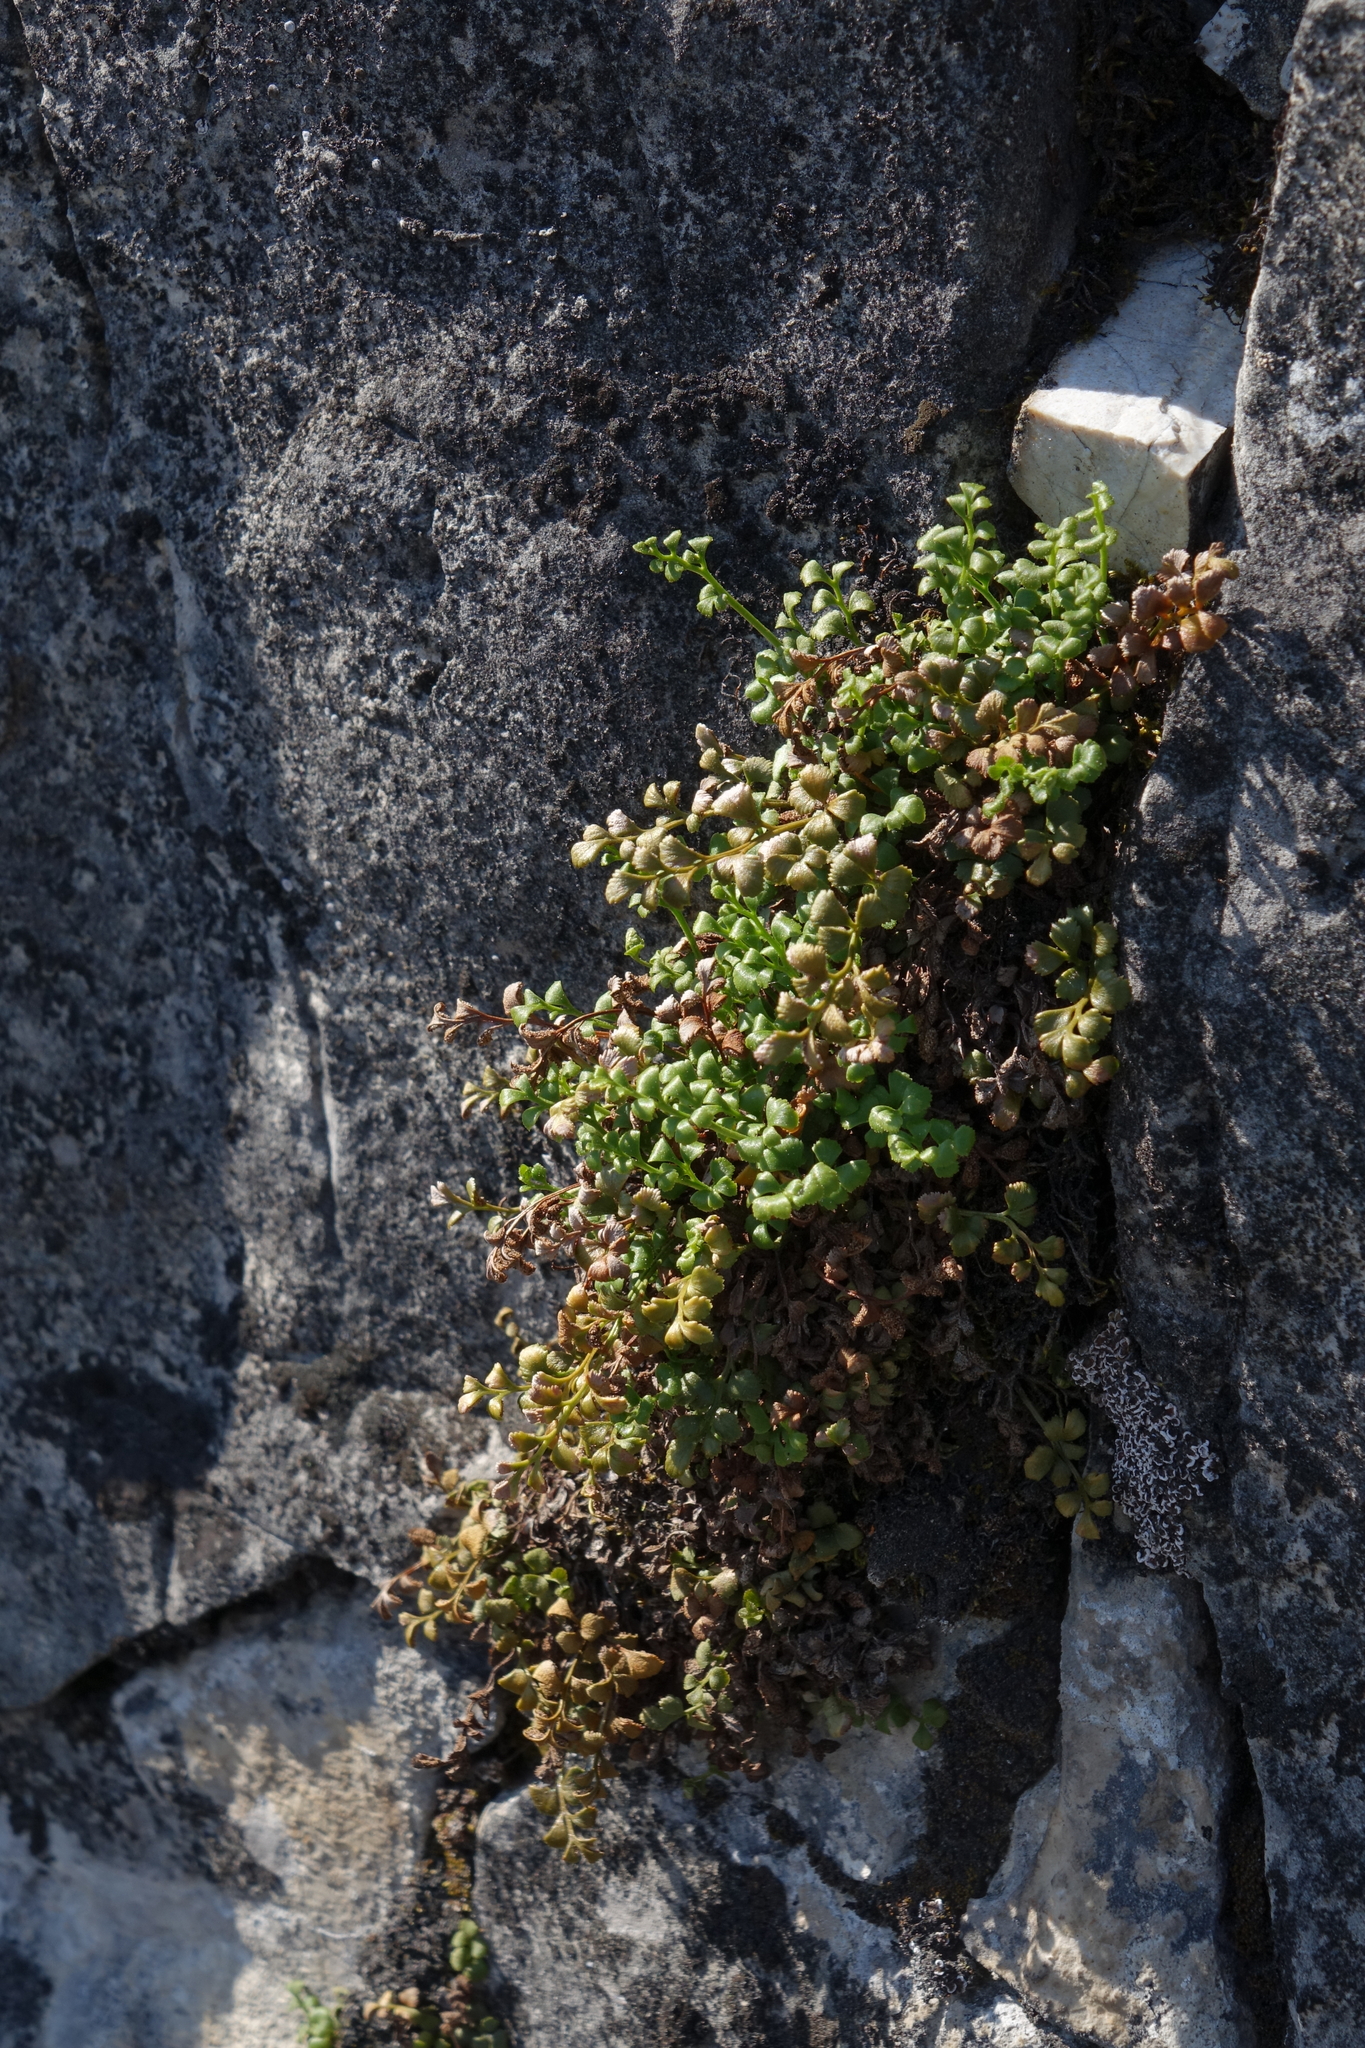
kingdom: Plantae
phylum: Tracheophyta
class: Polypodiopsida
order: Polypodiales
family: Aspleniaceae
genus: Asplenium
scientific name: Asplenium ruta-muraria
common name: Wall-rue
